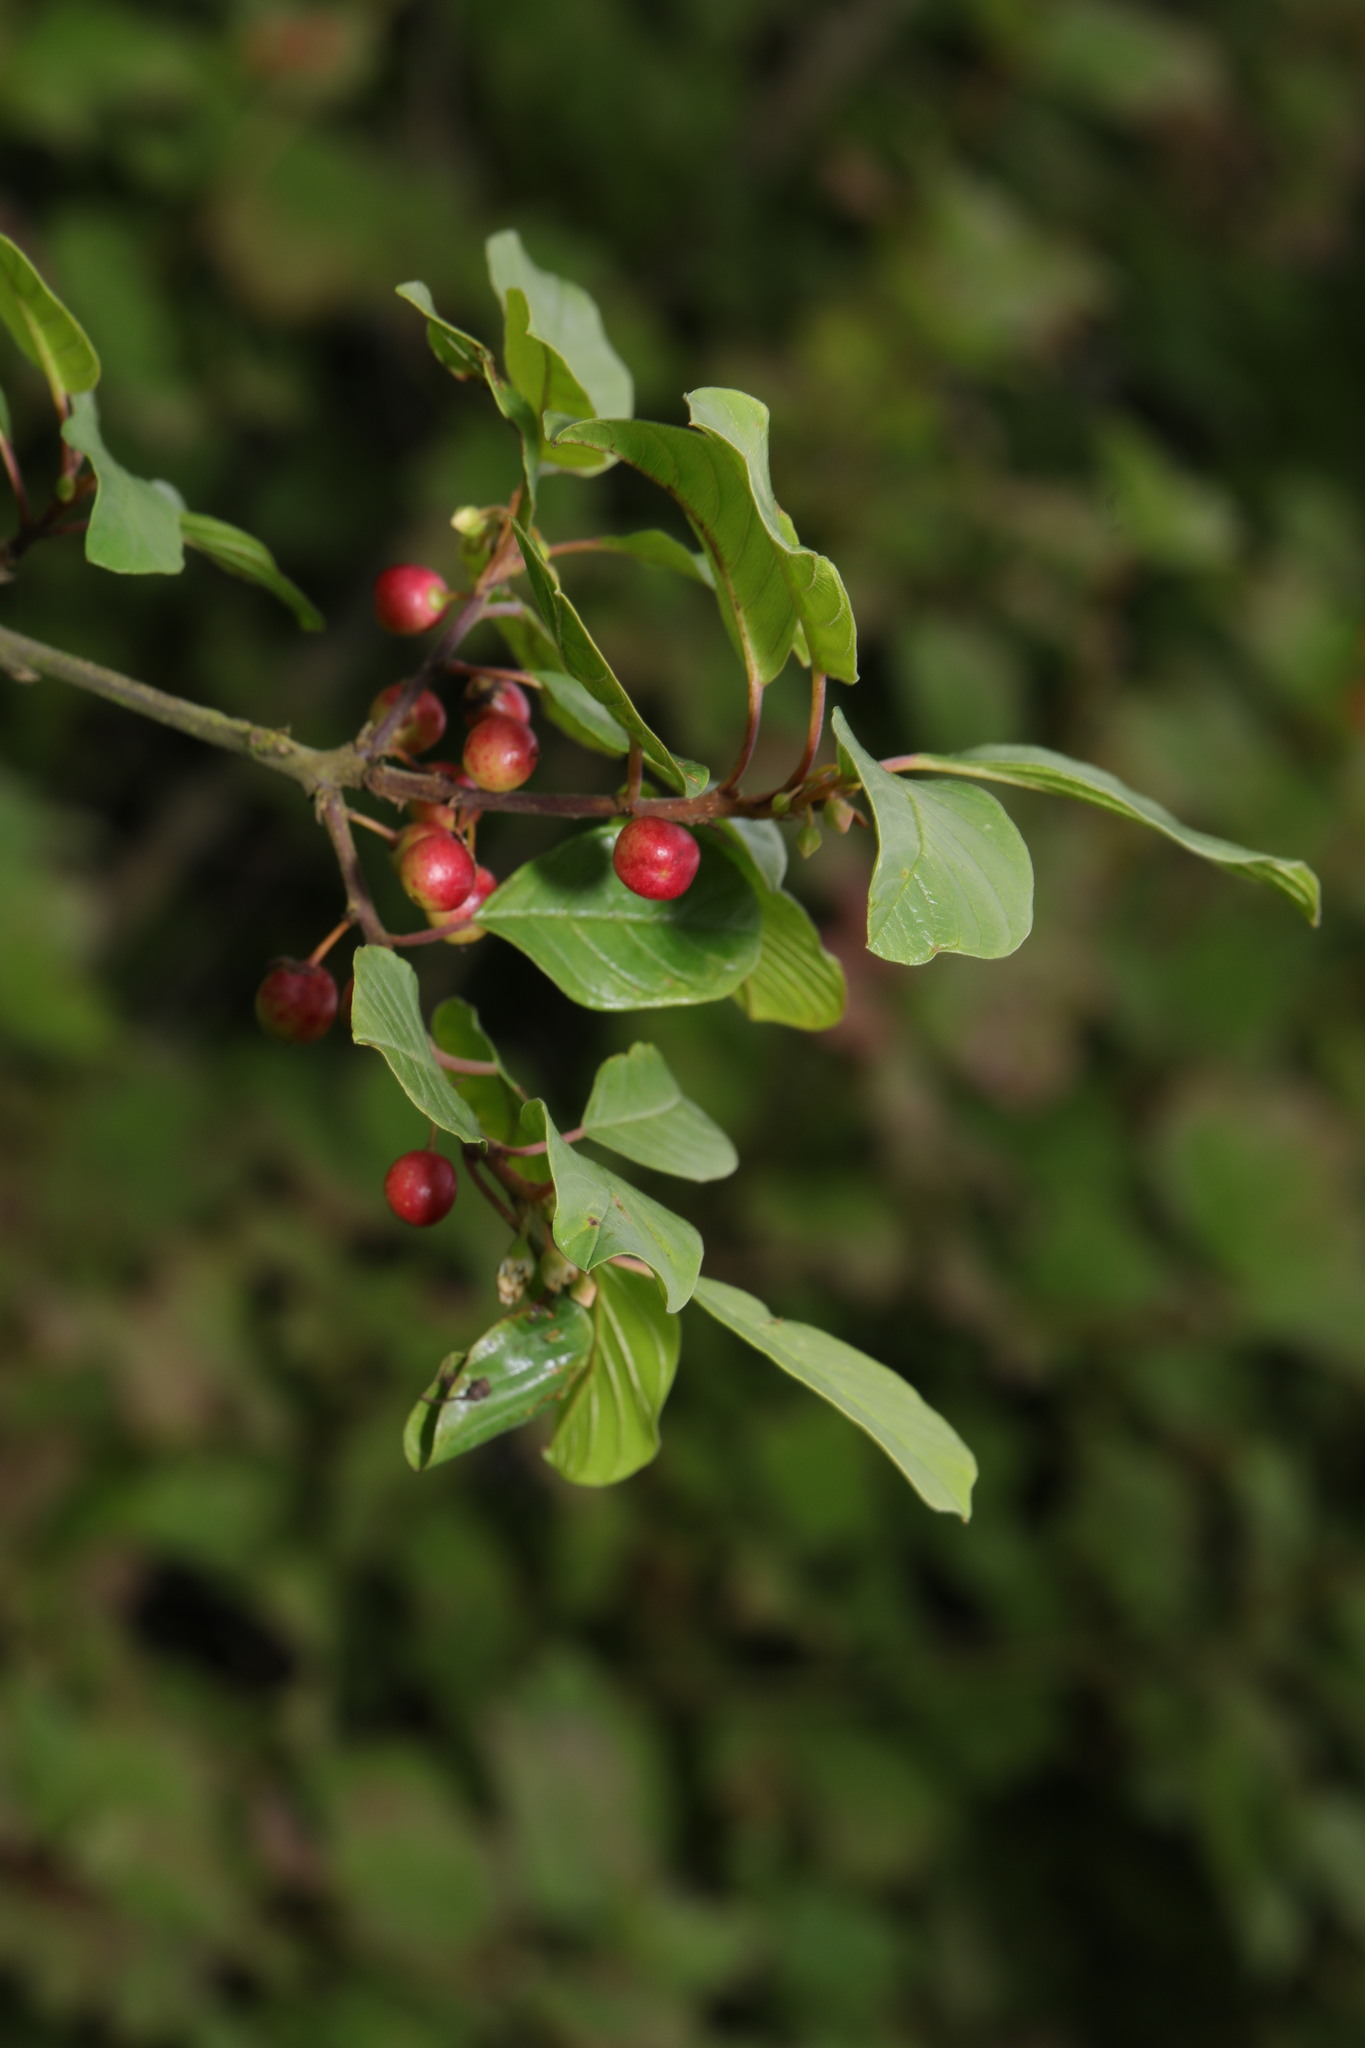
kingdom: Plantae
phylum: Tracheophyta
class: Magnoliopsida
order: Rosales
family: Rhamnaceae
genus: Frangula
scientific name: Frangula alnus
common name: Alder buckthorn
